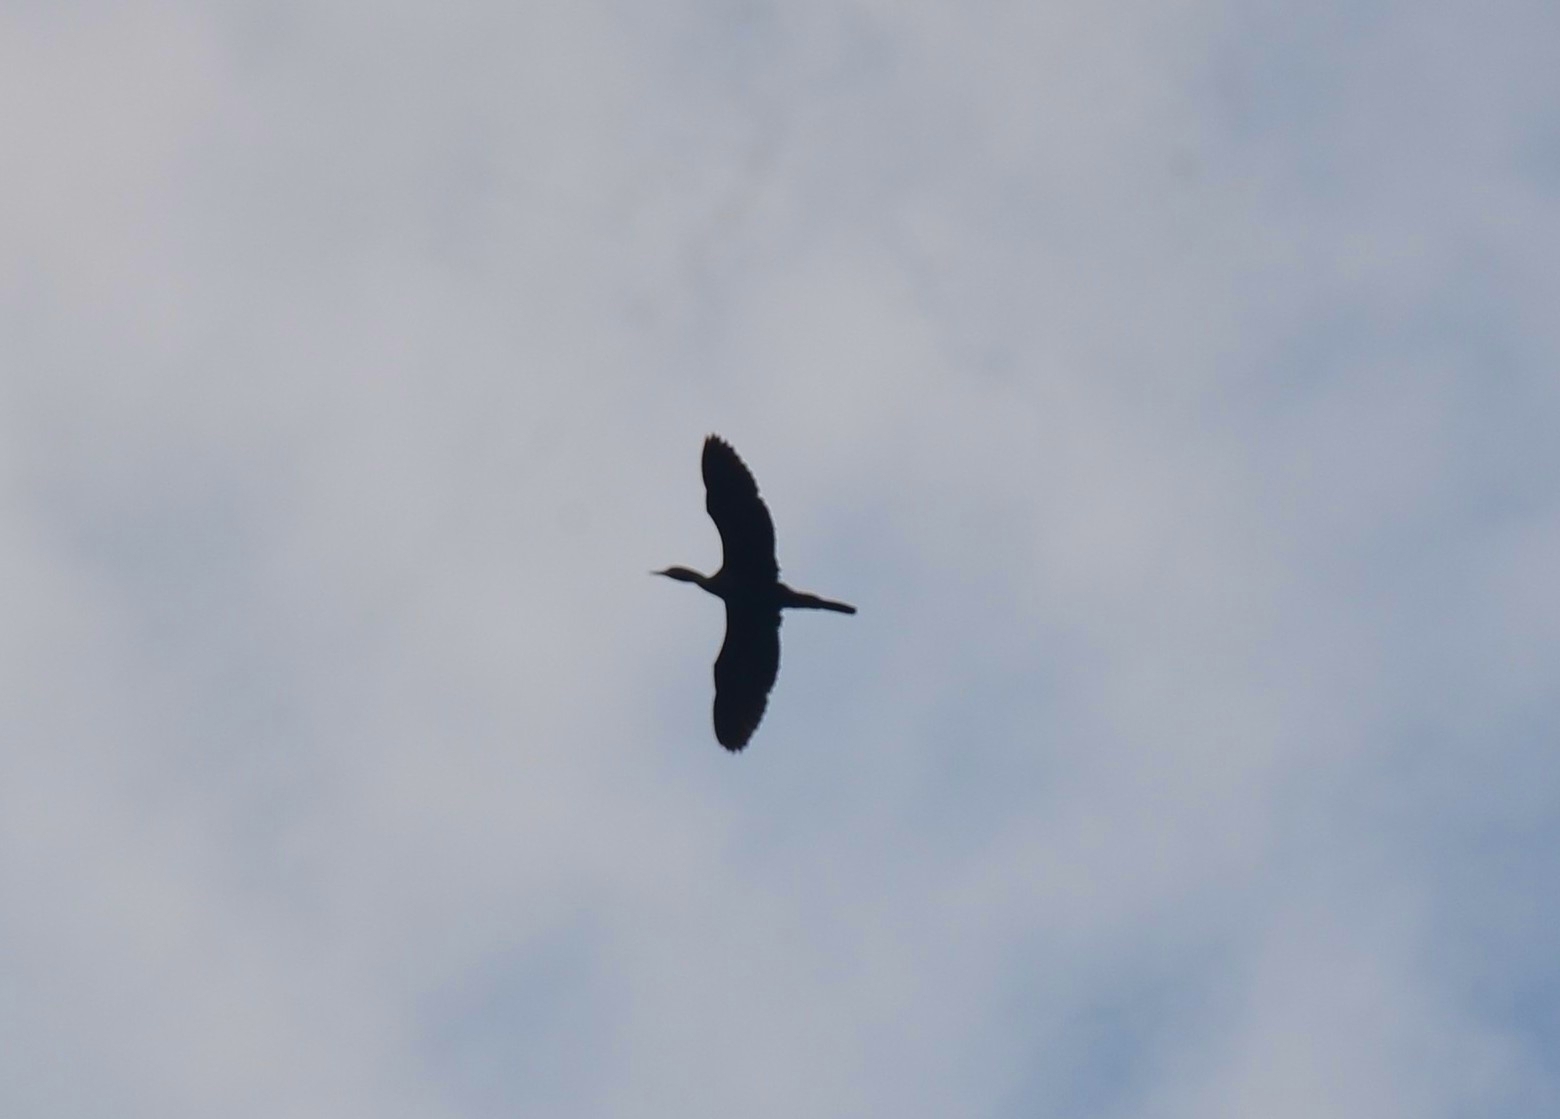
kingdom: Animalia
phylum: Chordata
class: Aves
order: Suliformes
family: Phalacrocoracidae
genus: Microcarbo
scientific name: Microcarbo niger
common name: Little cormorant
